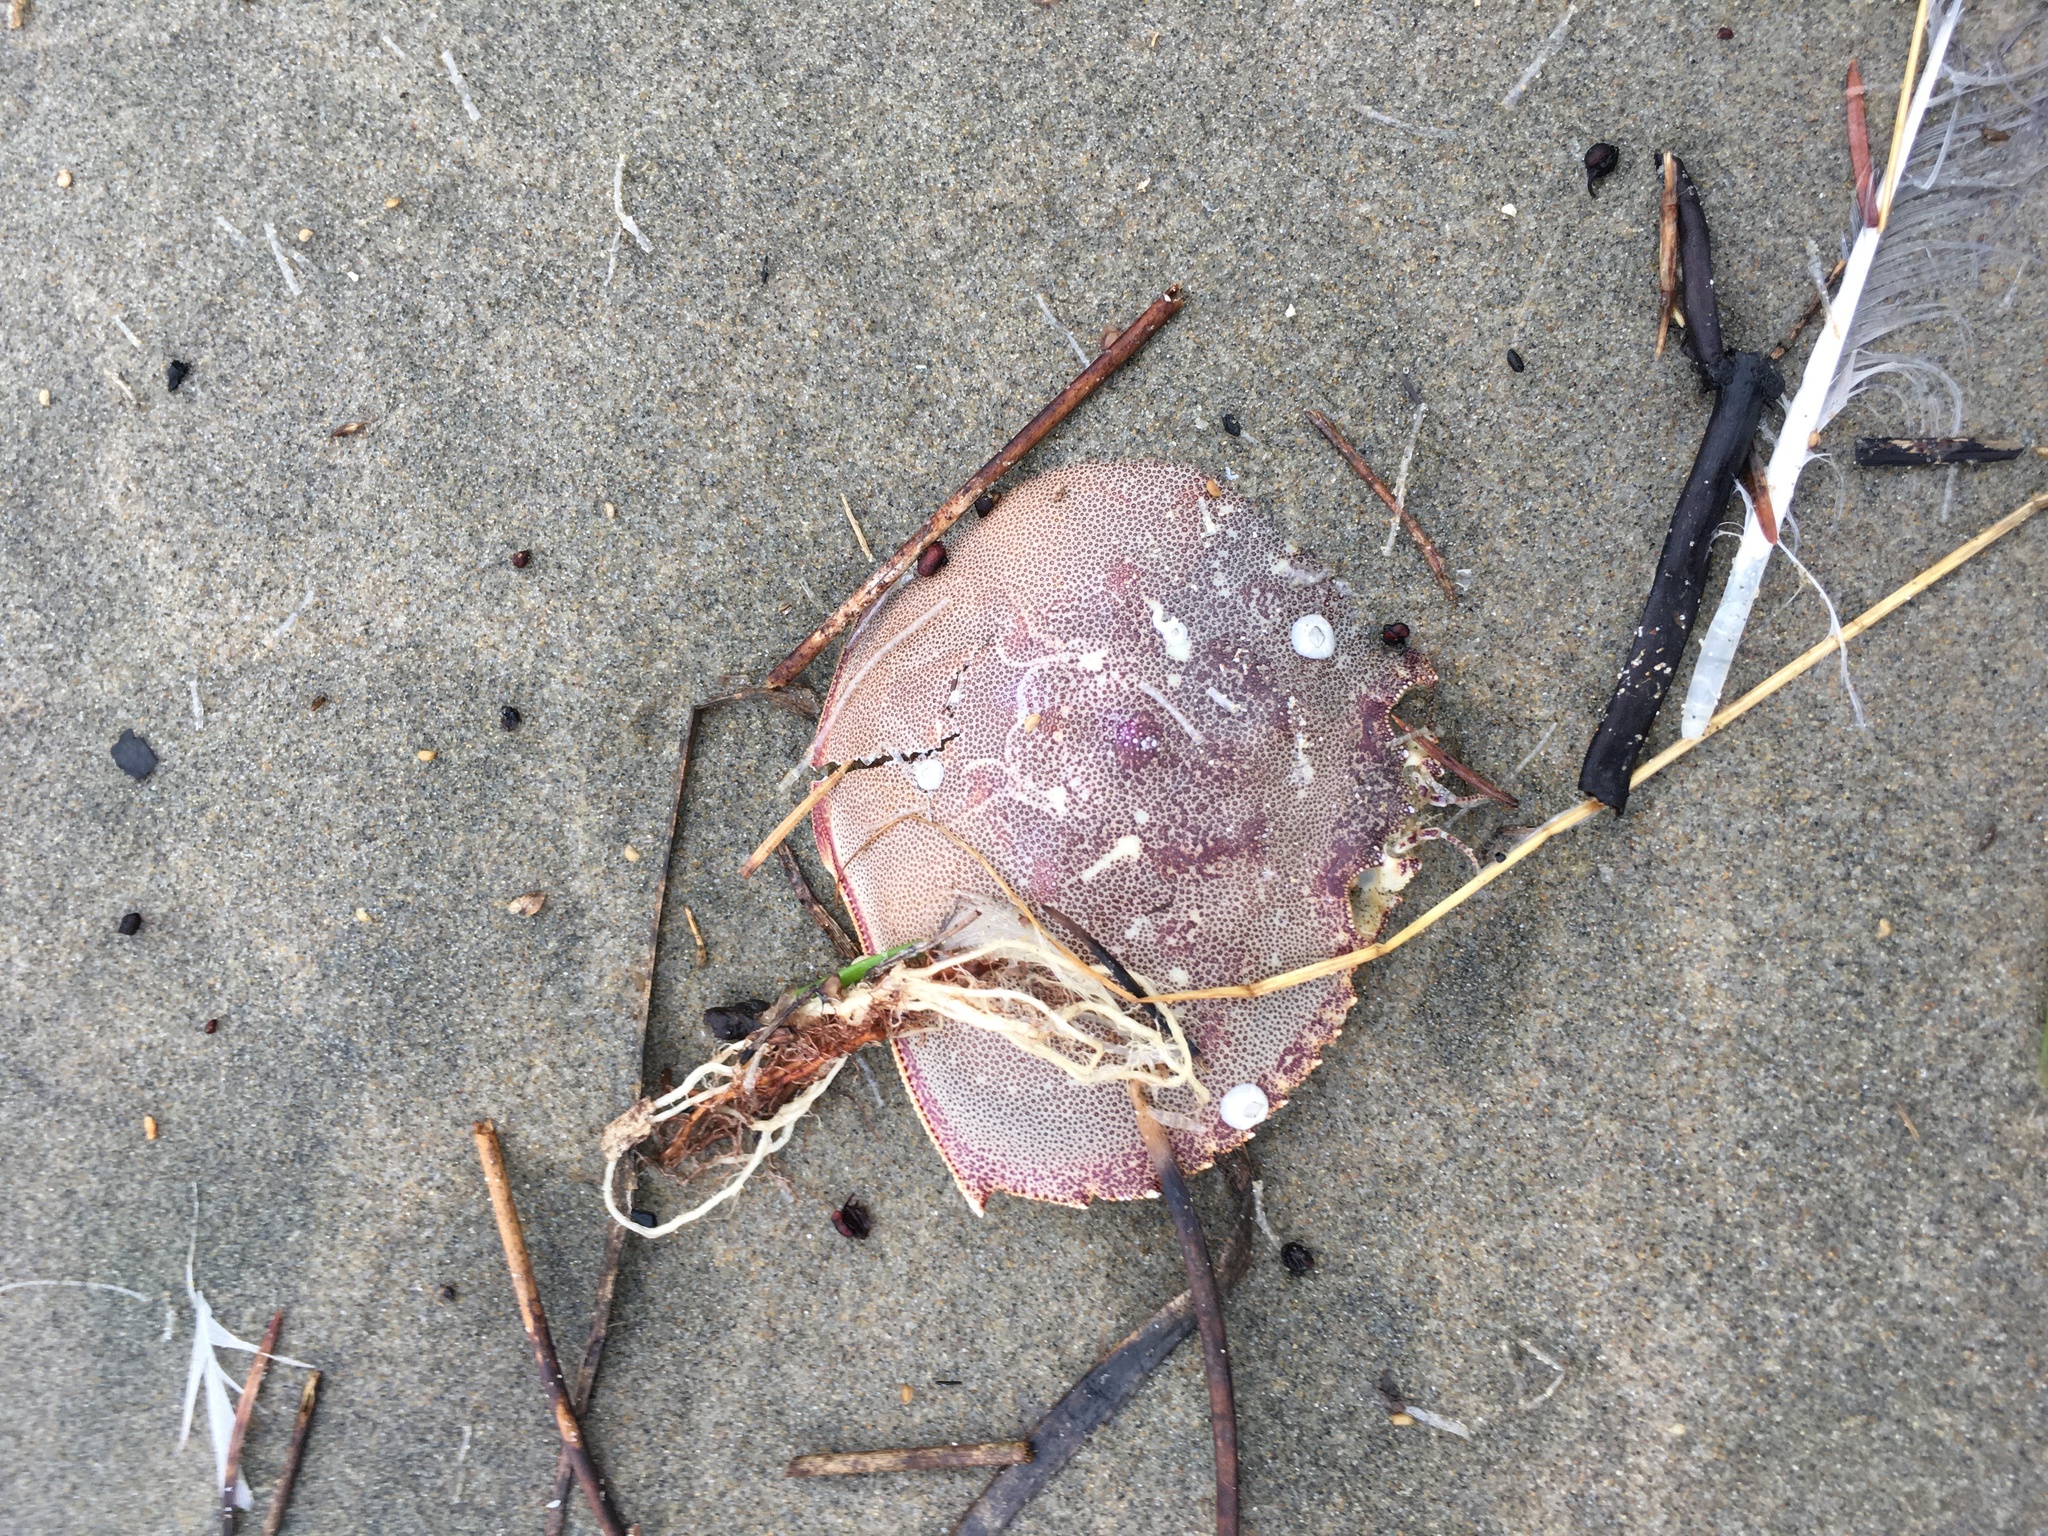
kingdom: Animalia
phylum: Arthropoda
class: Malacostraca
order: Decapoda
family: Cancridae
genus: Metacarcinus
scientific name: Metacarcinus magister
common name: Californian crab
